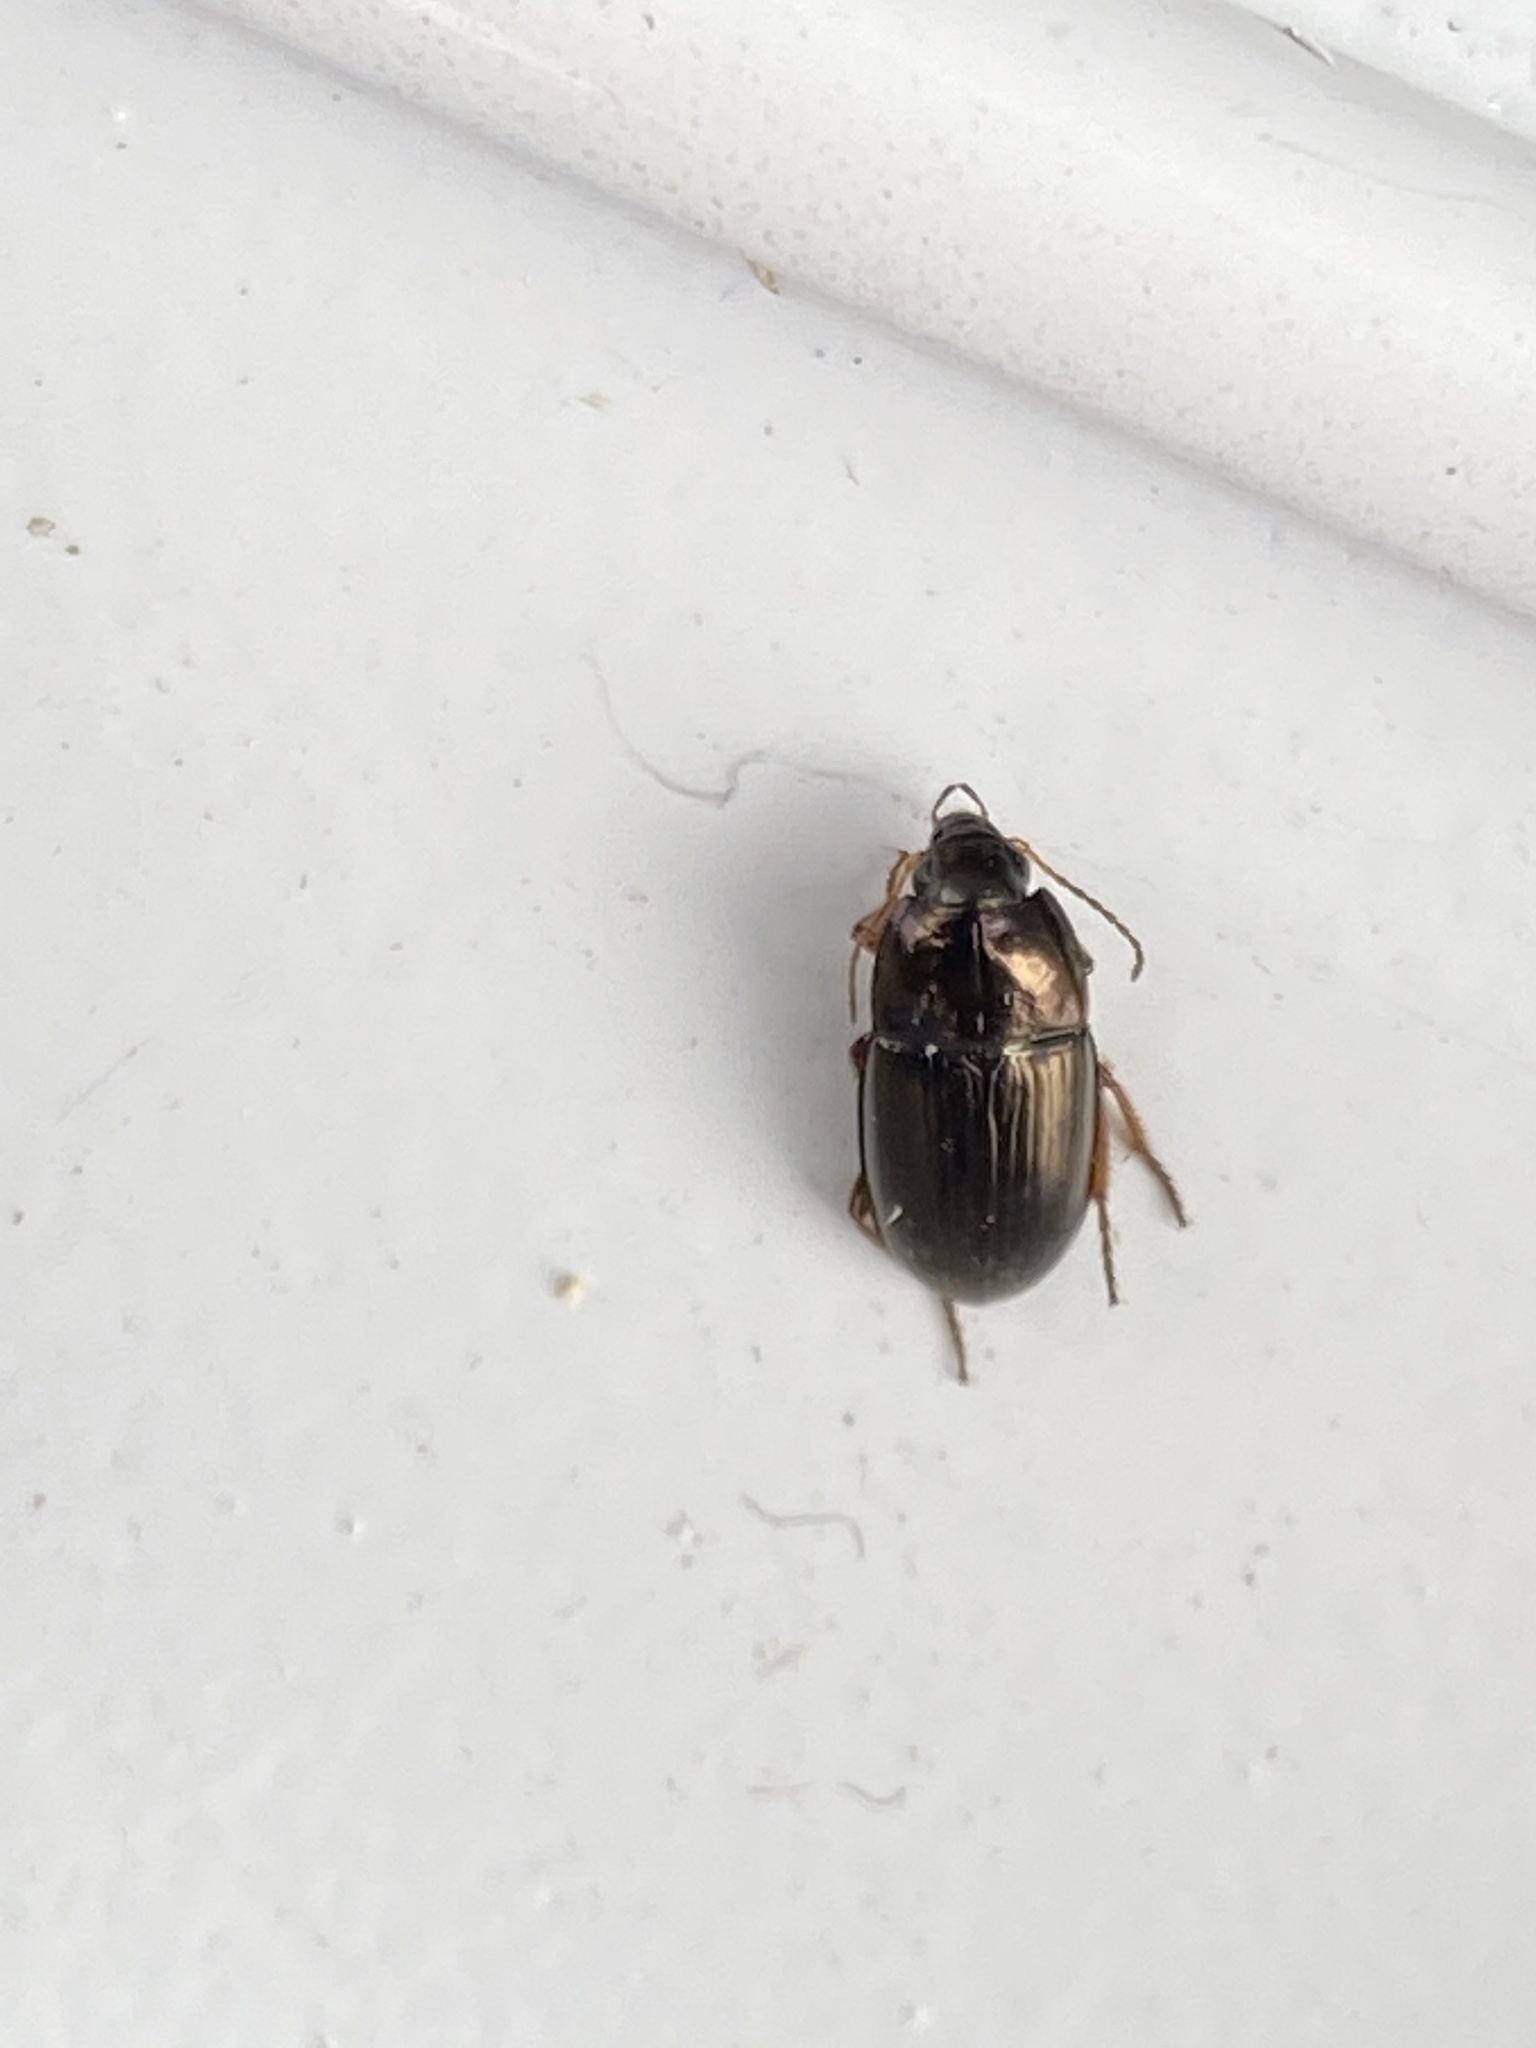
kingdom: Animalia
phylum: Arthropoda
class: Insecta
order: Coleoptera
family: Carabidae
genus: Amara
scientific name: Amara familiaris
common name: Familiar harp round beetle
